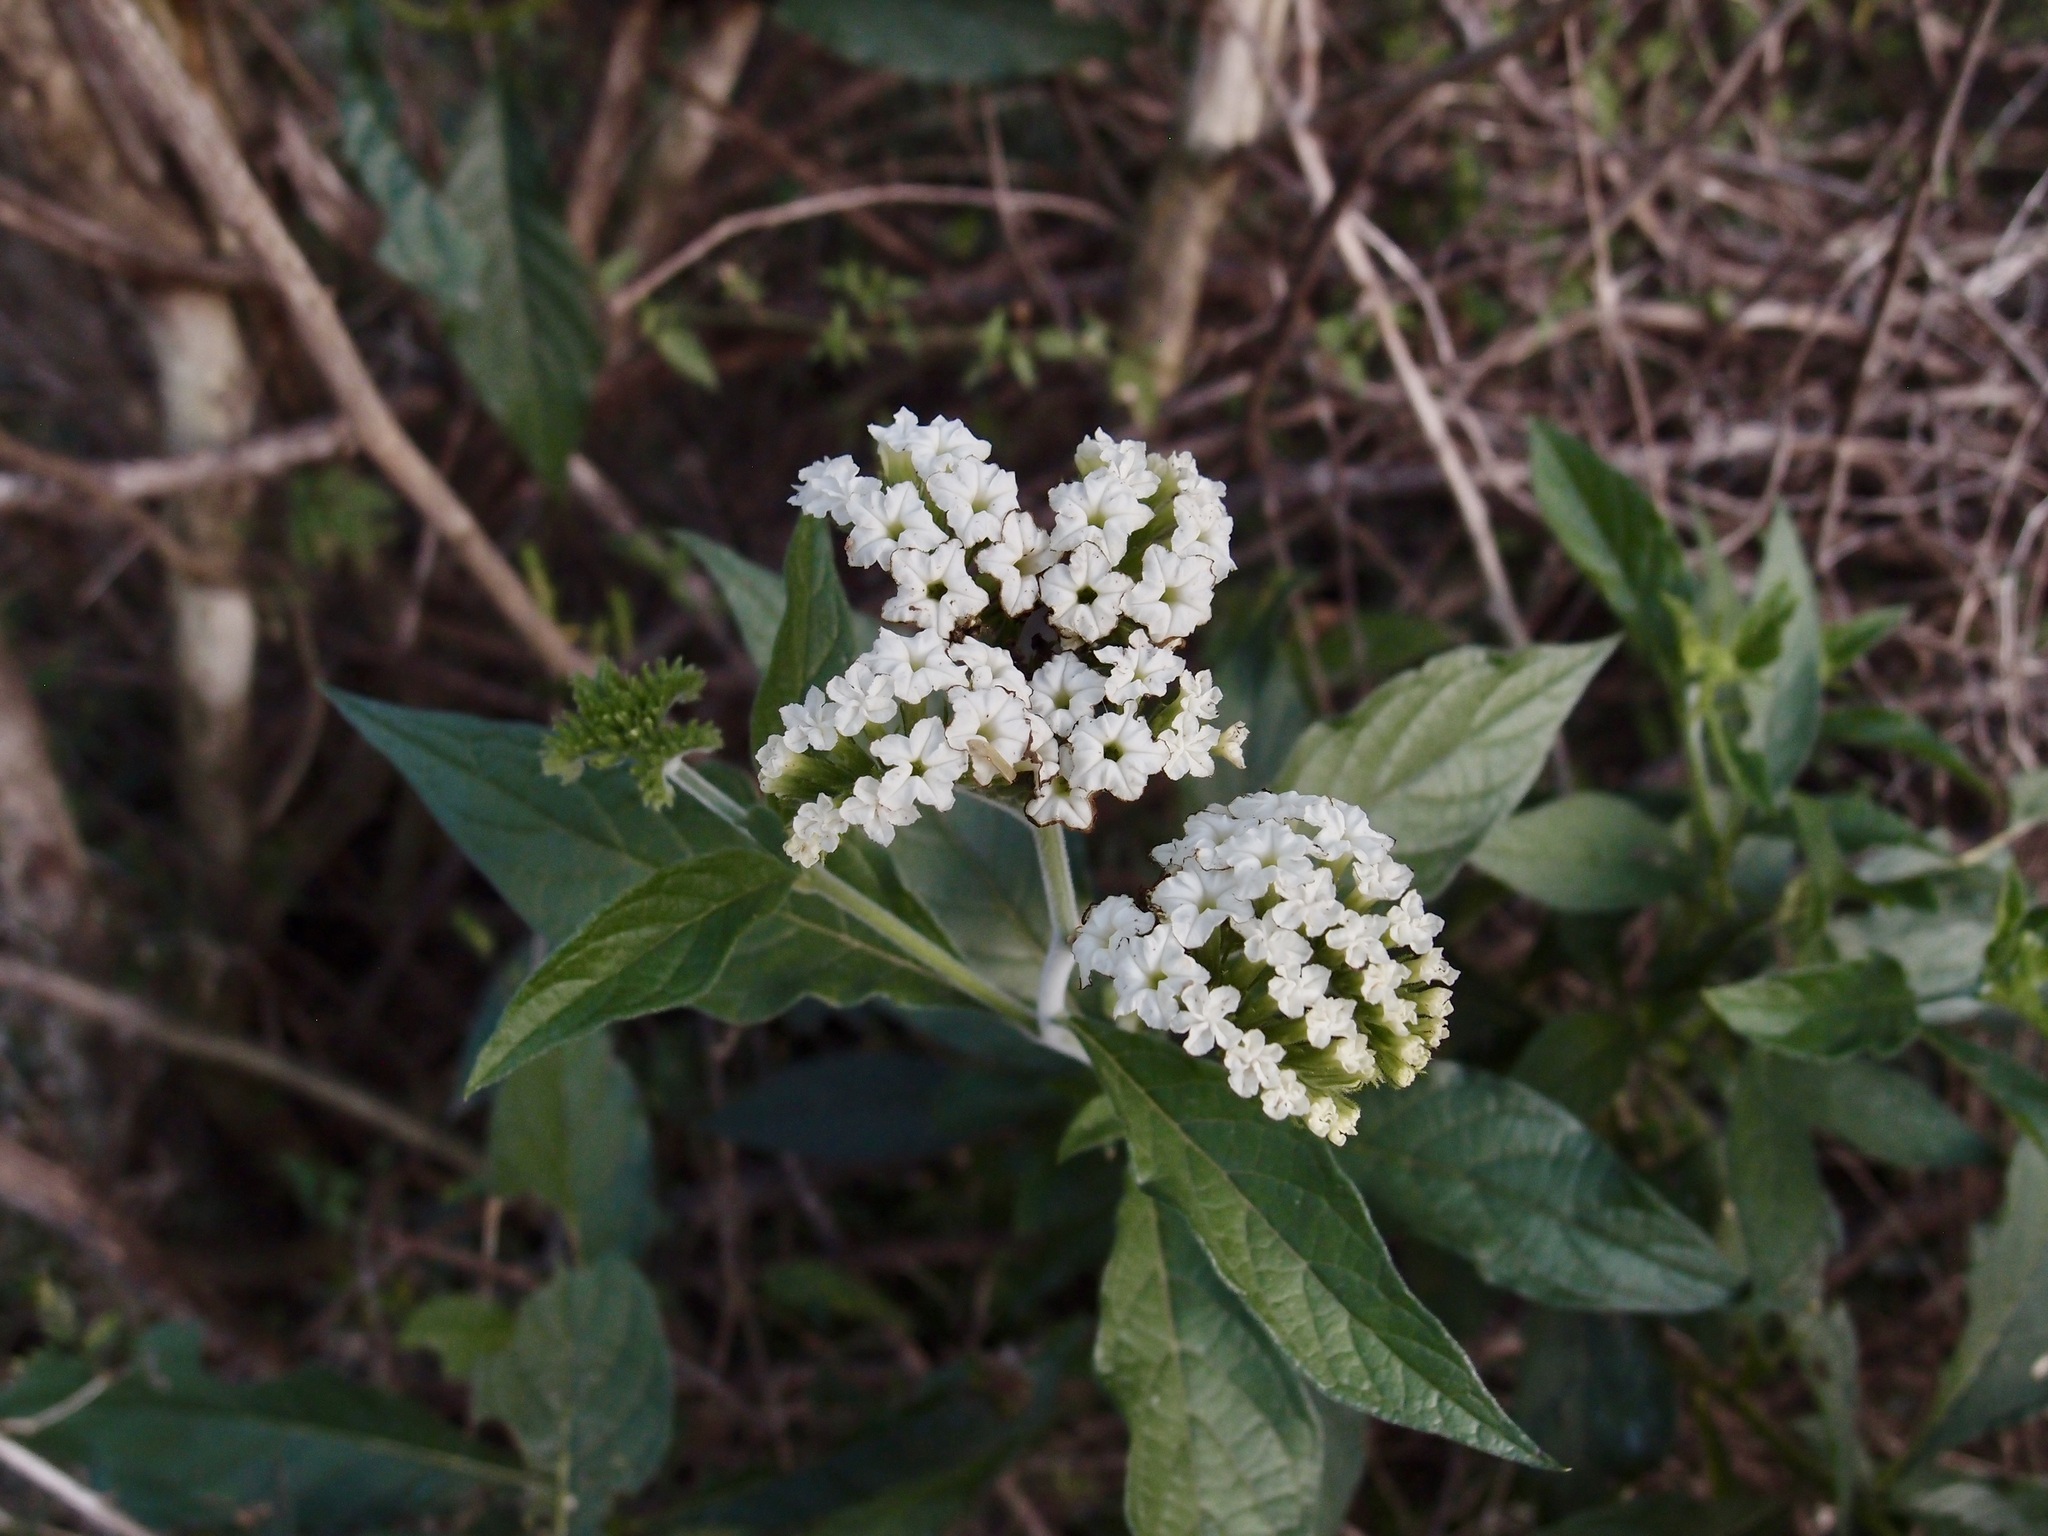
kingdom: Plantae
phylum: Tracheophyta
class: Magnoliopsida
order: Boraginales
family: Heliotropiaceae
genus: Tournefortia
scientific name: Tournefortia mutabilis
